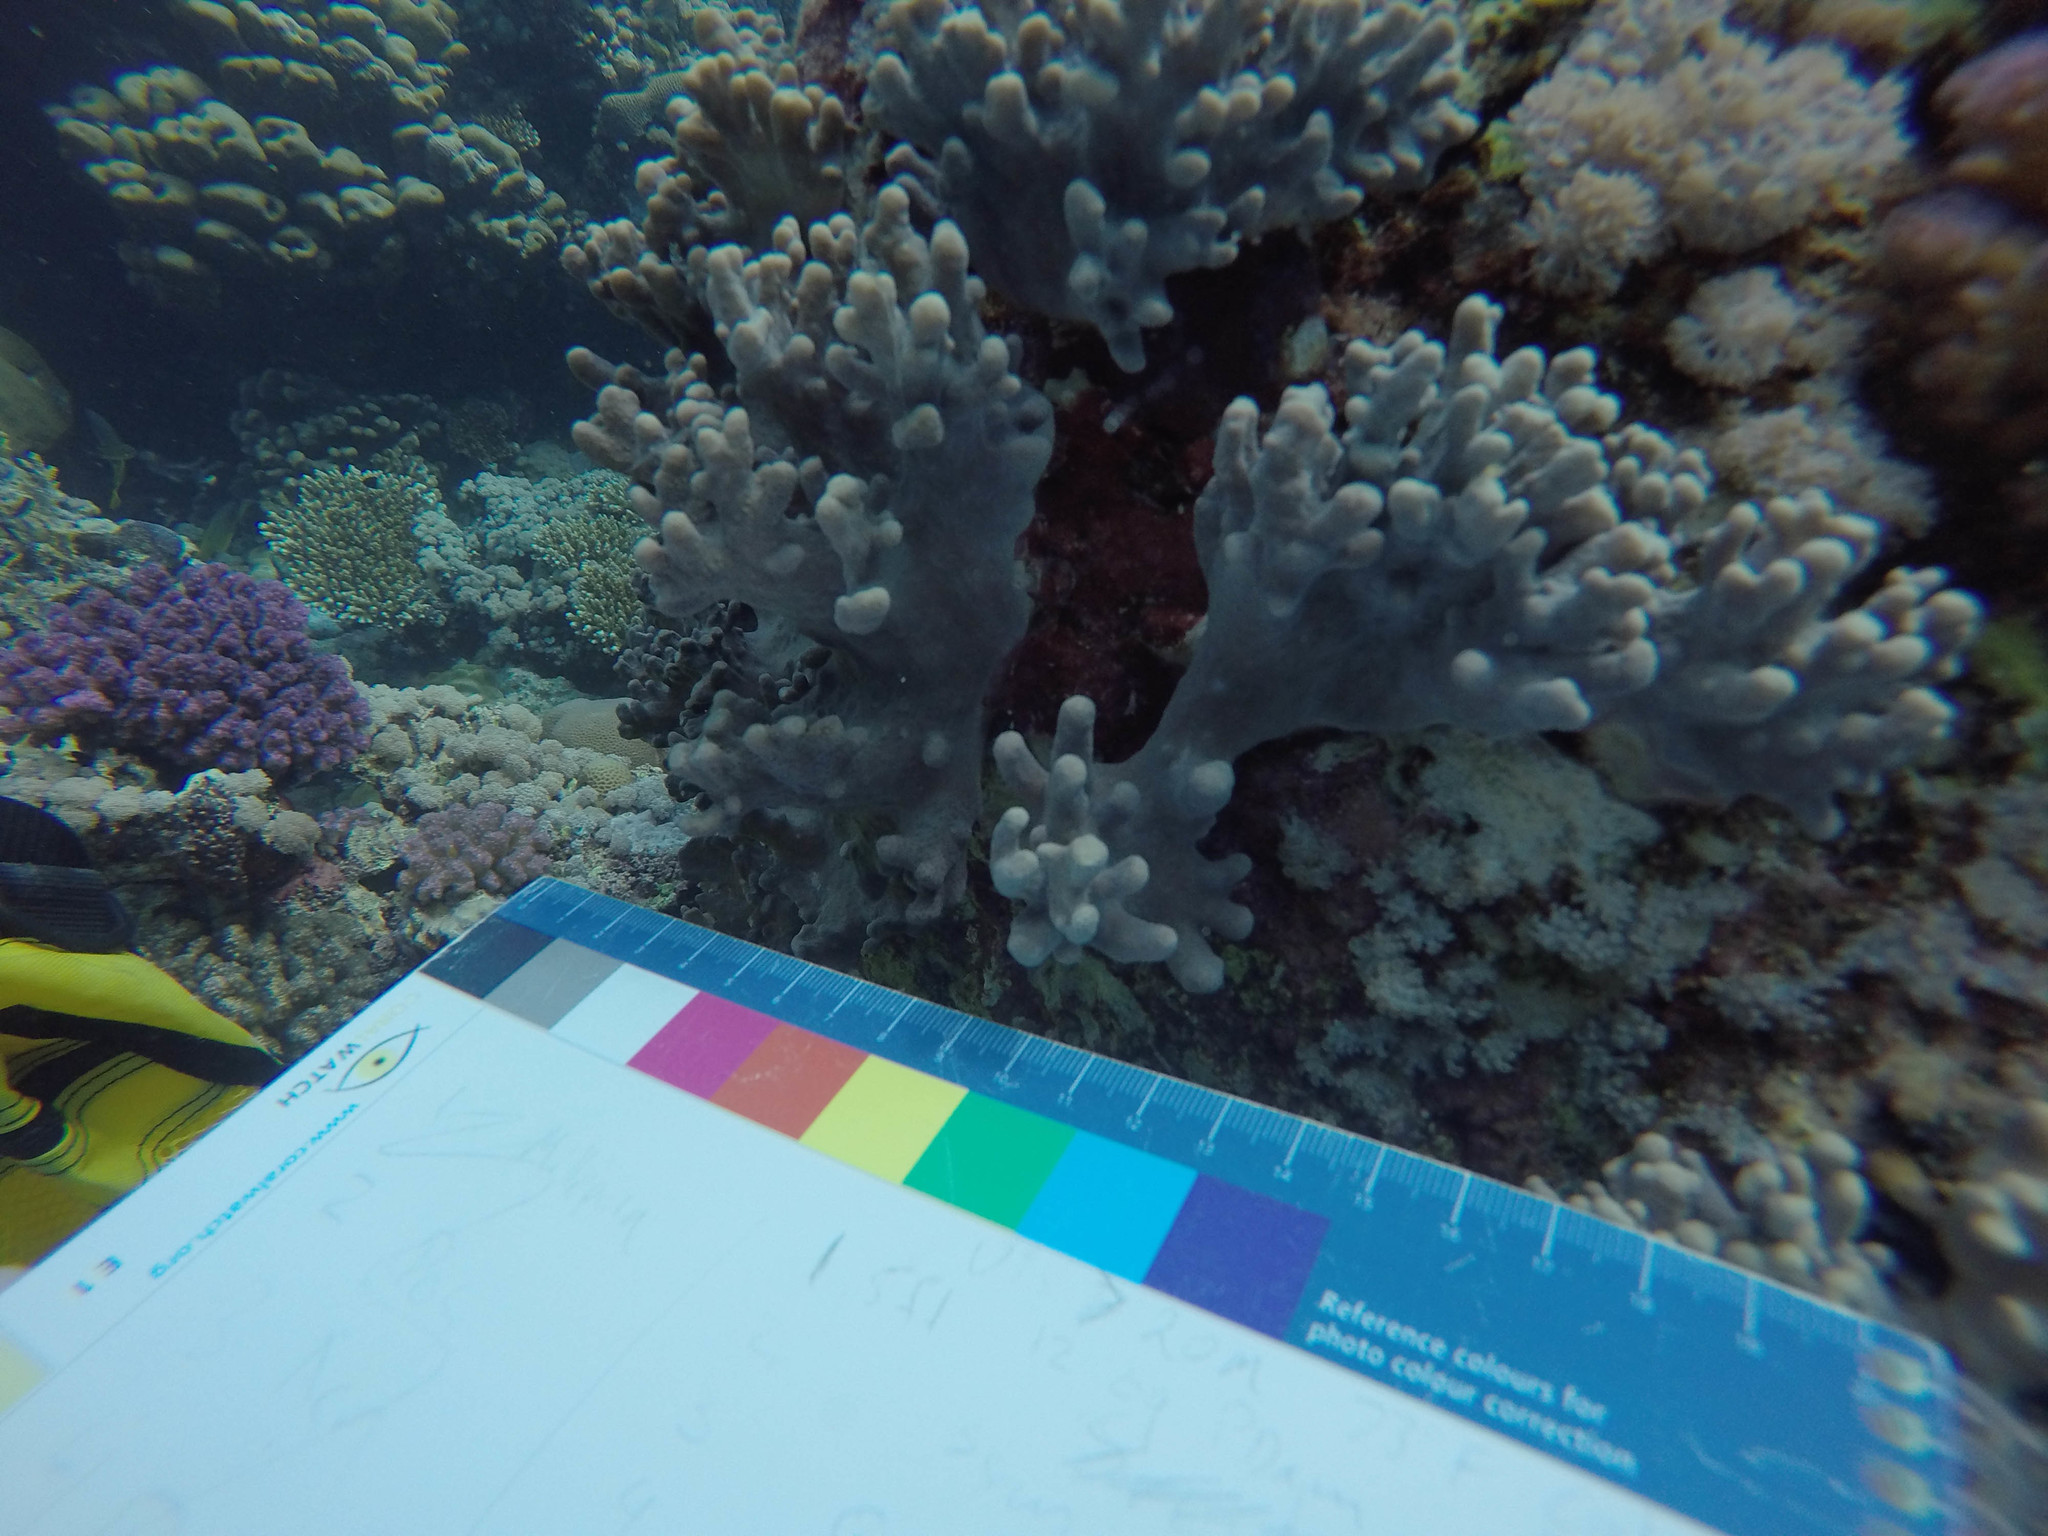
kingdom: Animalia
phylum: Cnidaria
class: Anthozoa
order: Malacalcyonacea
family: Sarcophytidae
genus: Sclerophytum
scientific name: Sclerophytum polydactylum
